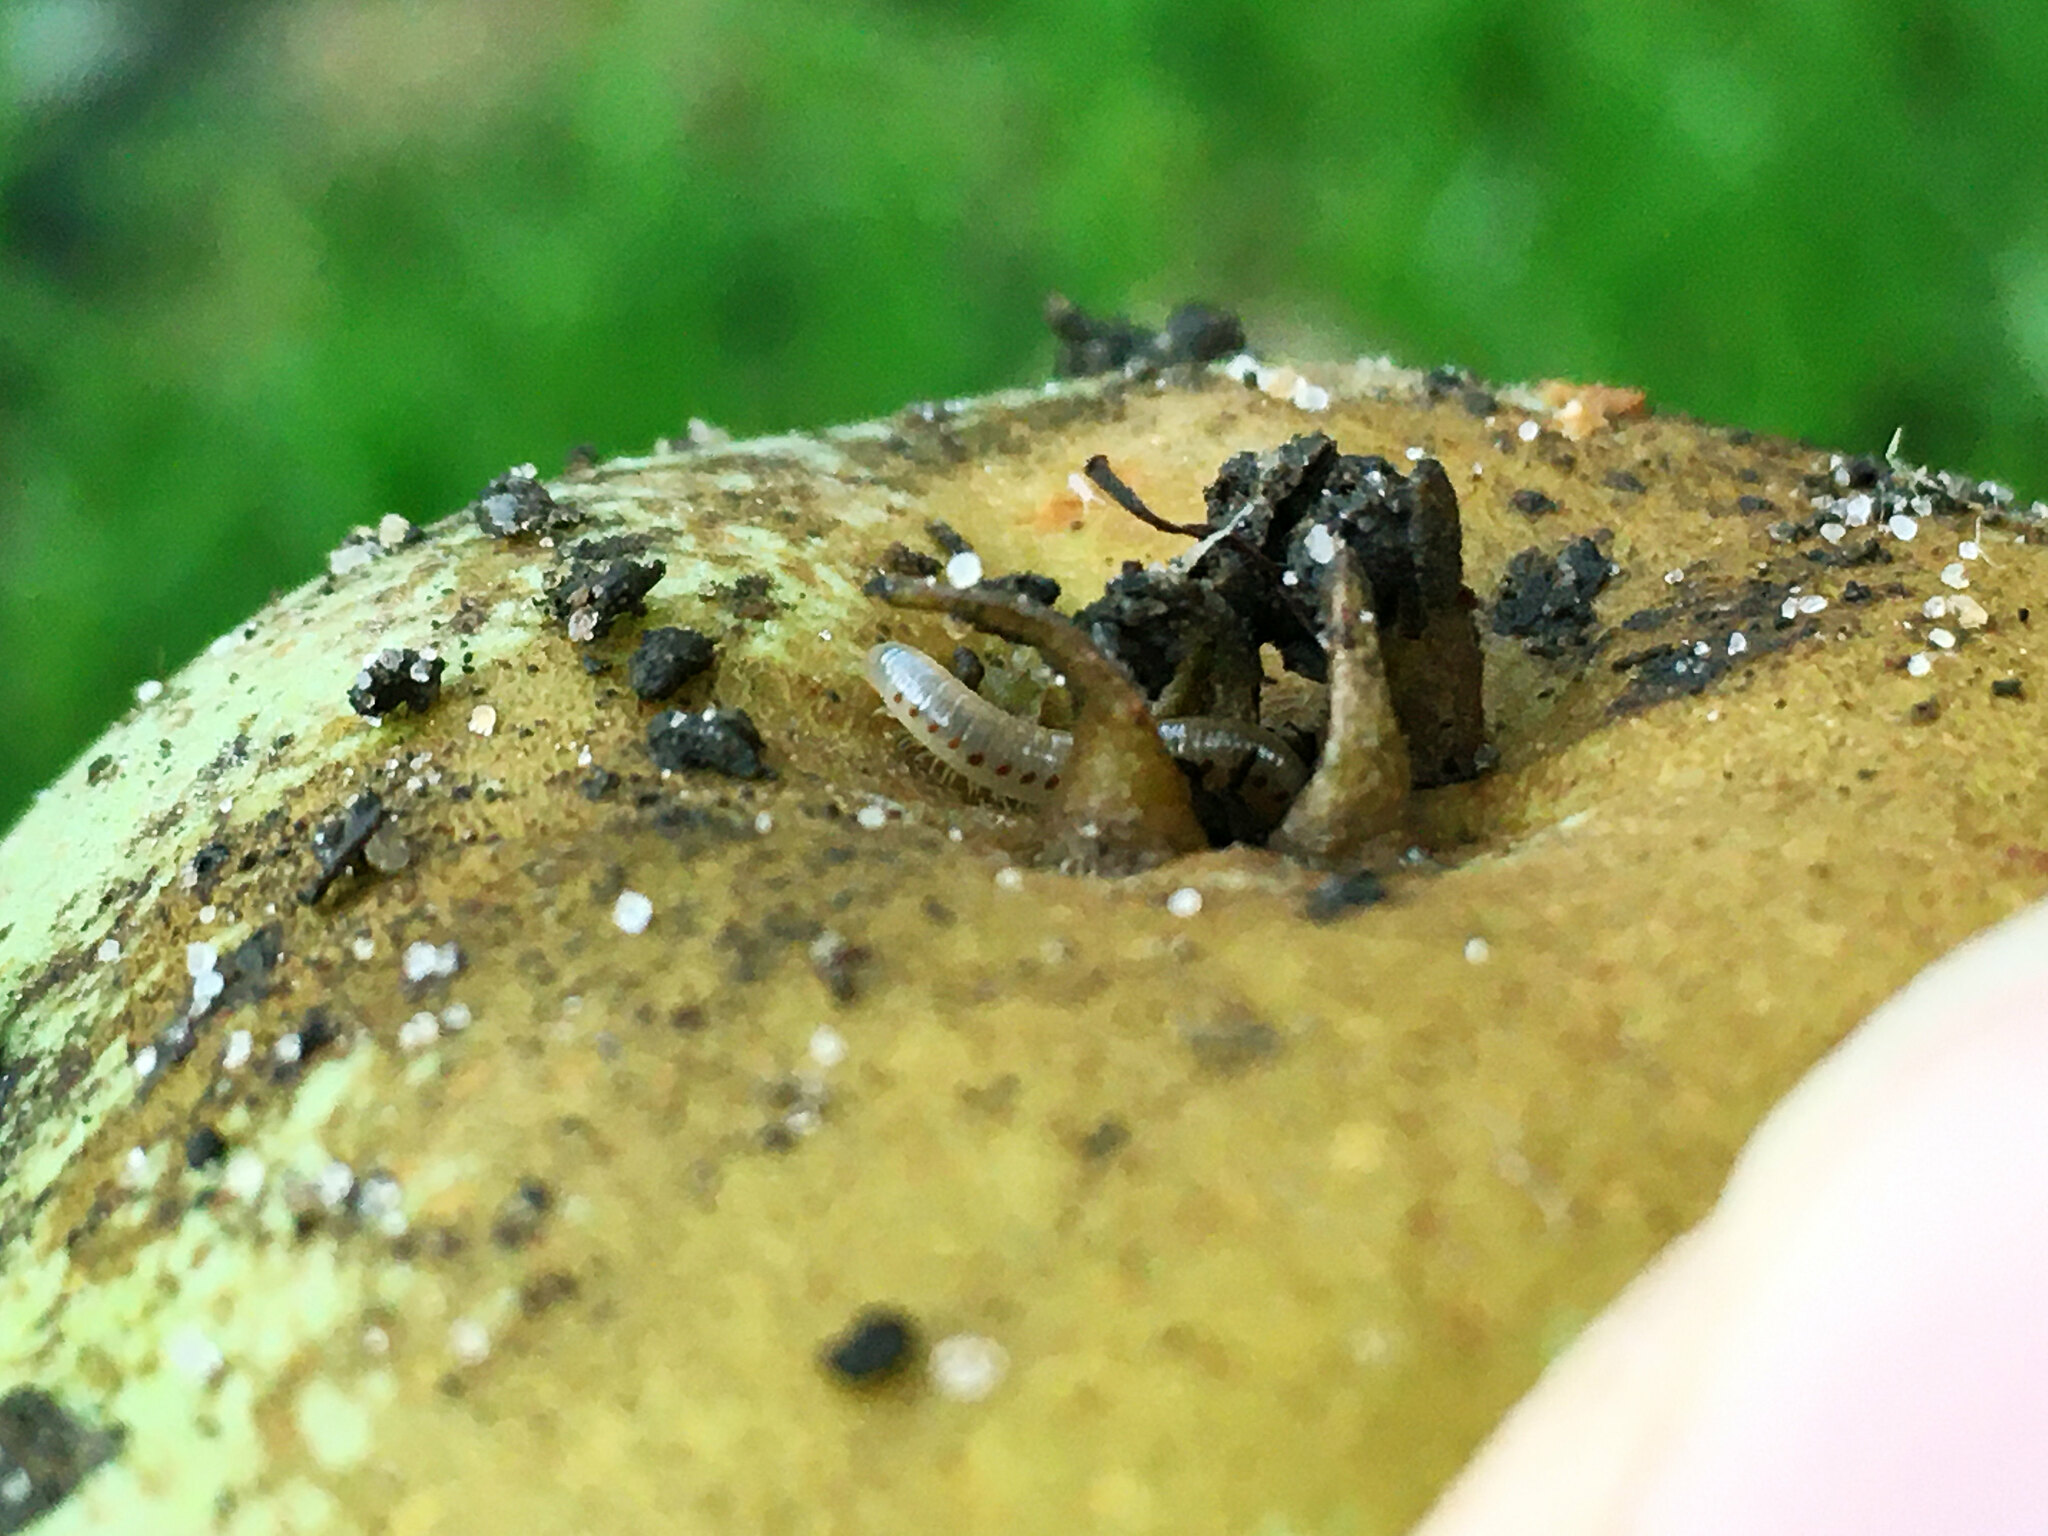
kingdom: Animalia
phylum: Arthropoda
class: Diplopoda
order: Julida
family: Blaniulidae
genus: Blaniulus
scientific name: Blaniulus guttulatus
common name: Spotted snake millipede
